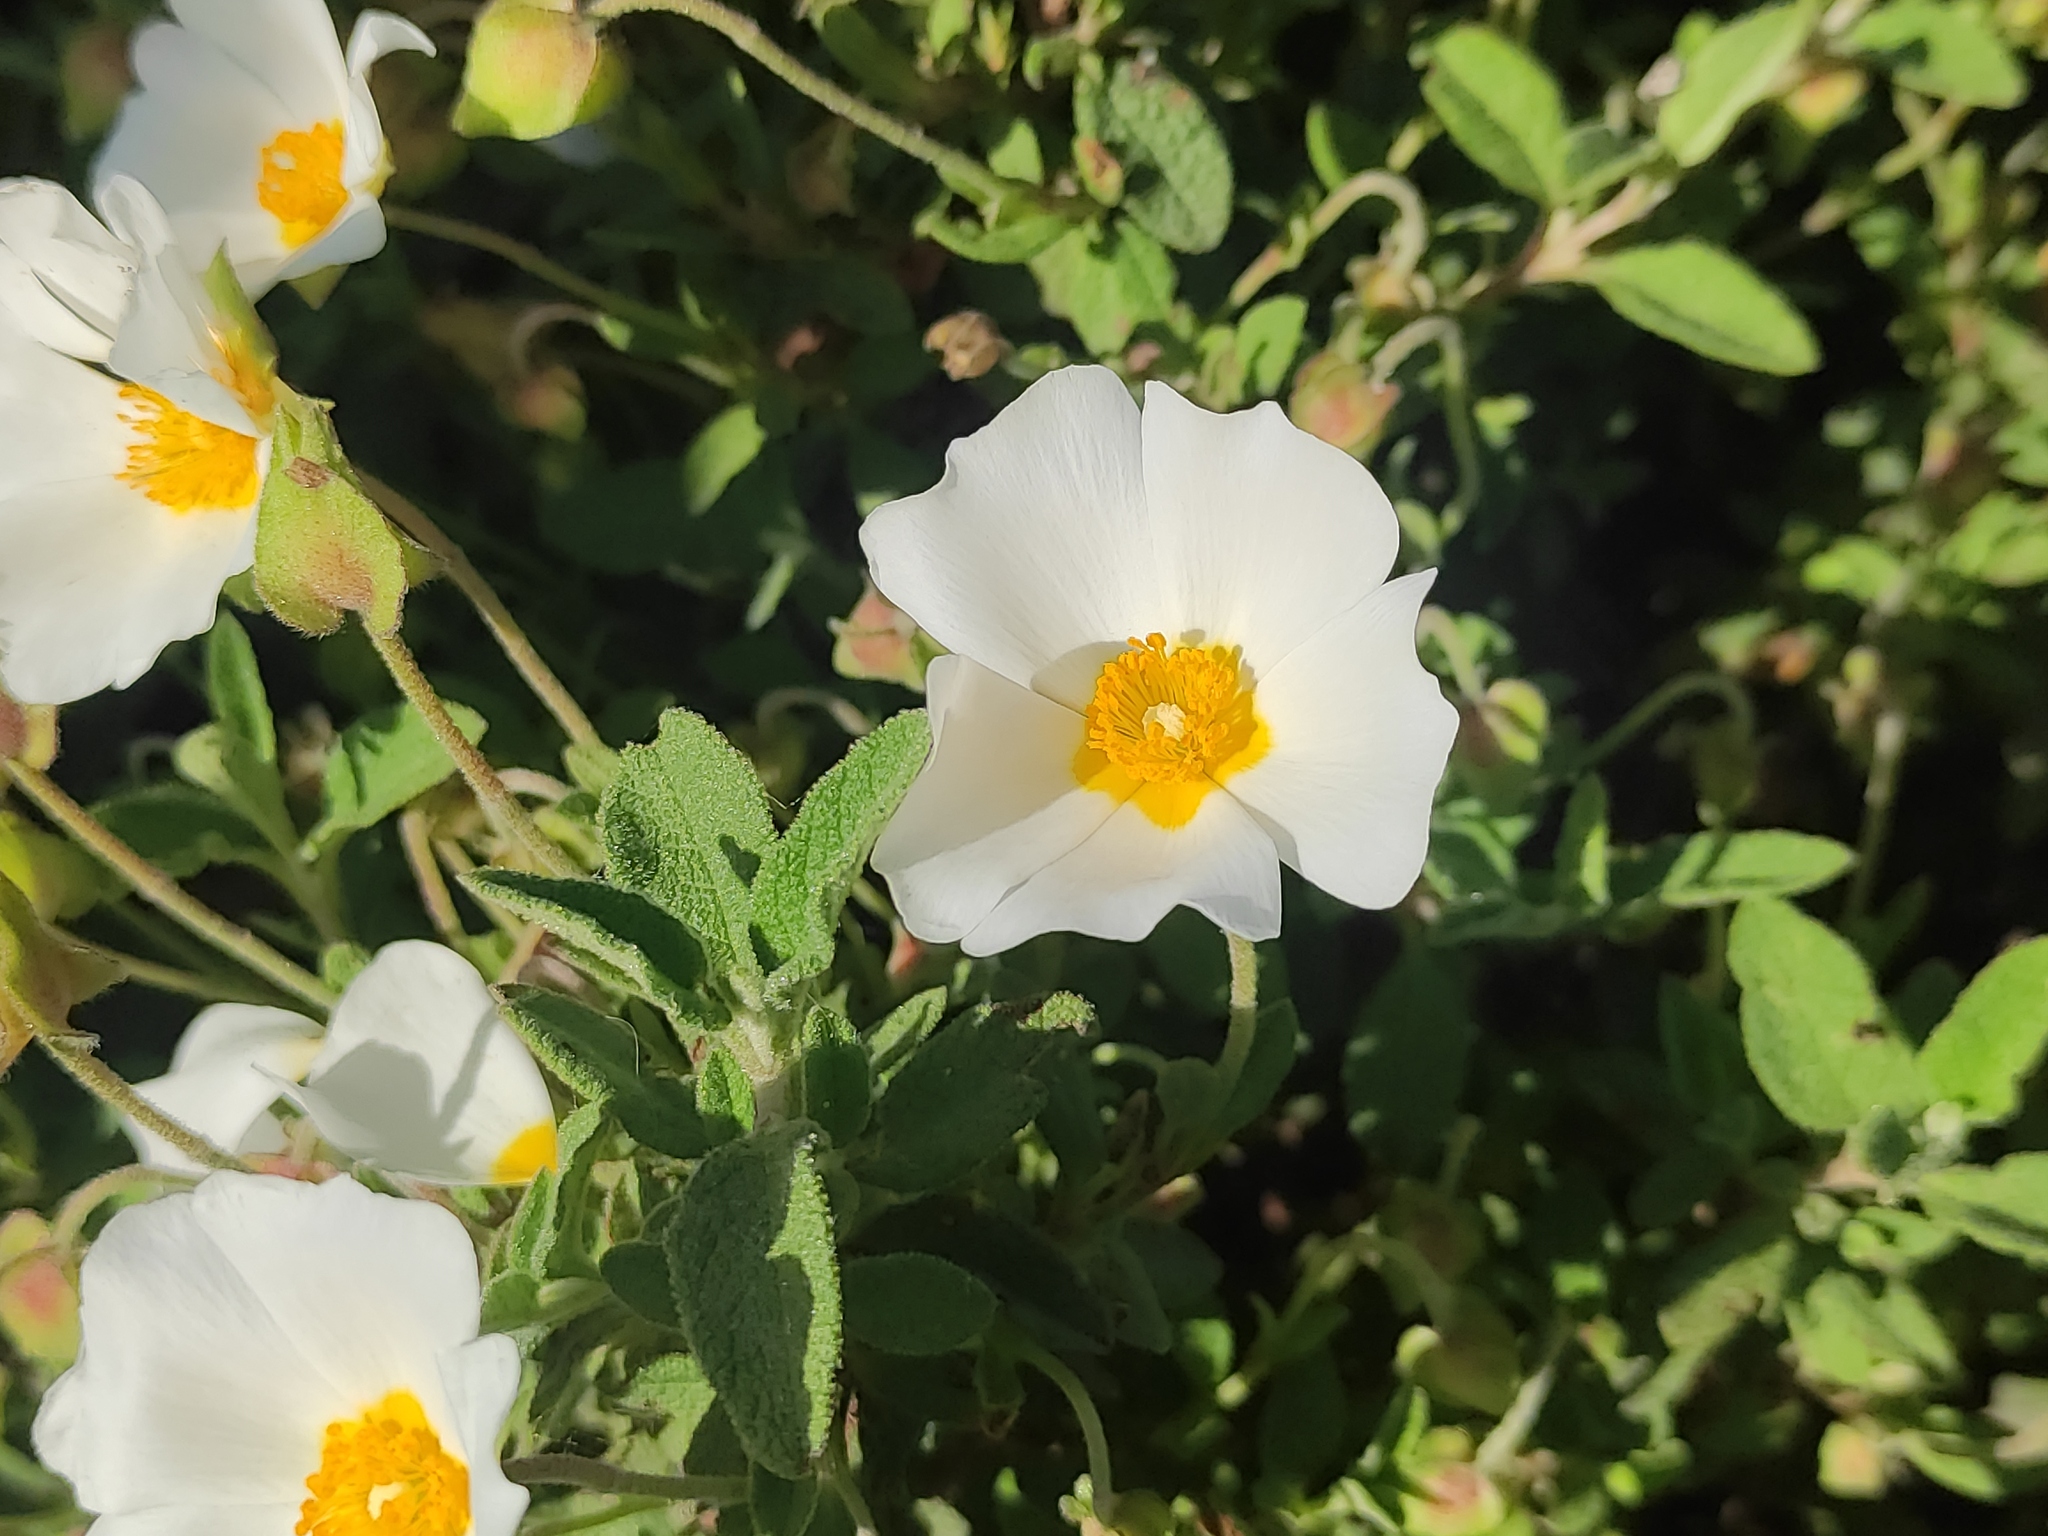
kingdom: Plantae
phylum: Tracheophyta
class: Magnoliopsida
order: Malvales
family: Cistaceae
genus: Cistus
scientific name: Cistus salviifolius
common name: Salvia cistus
